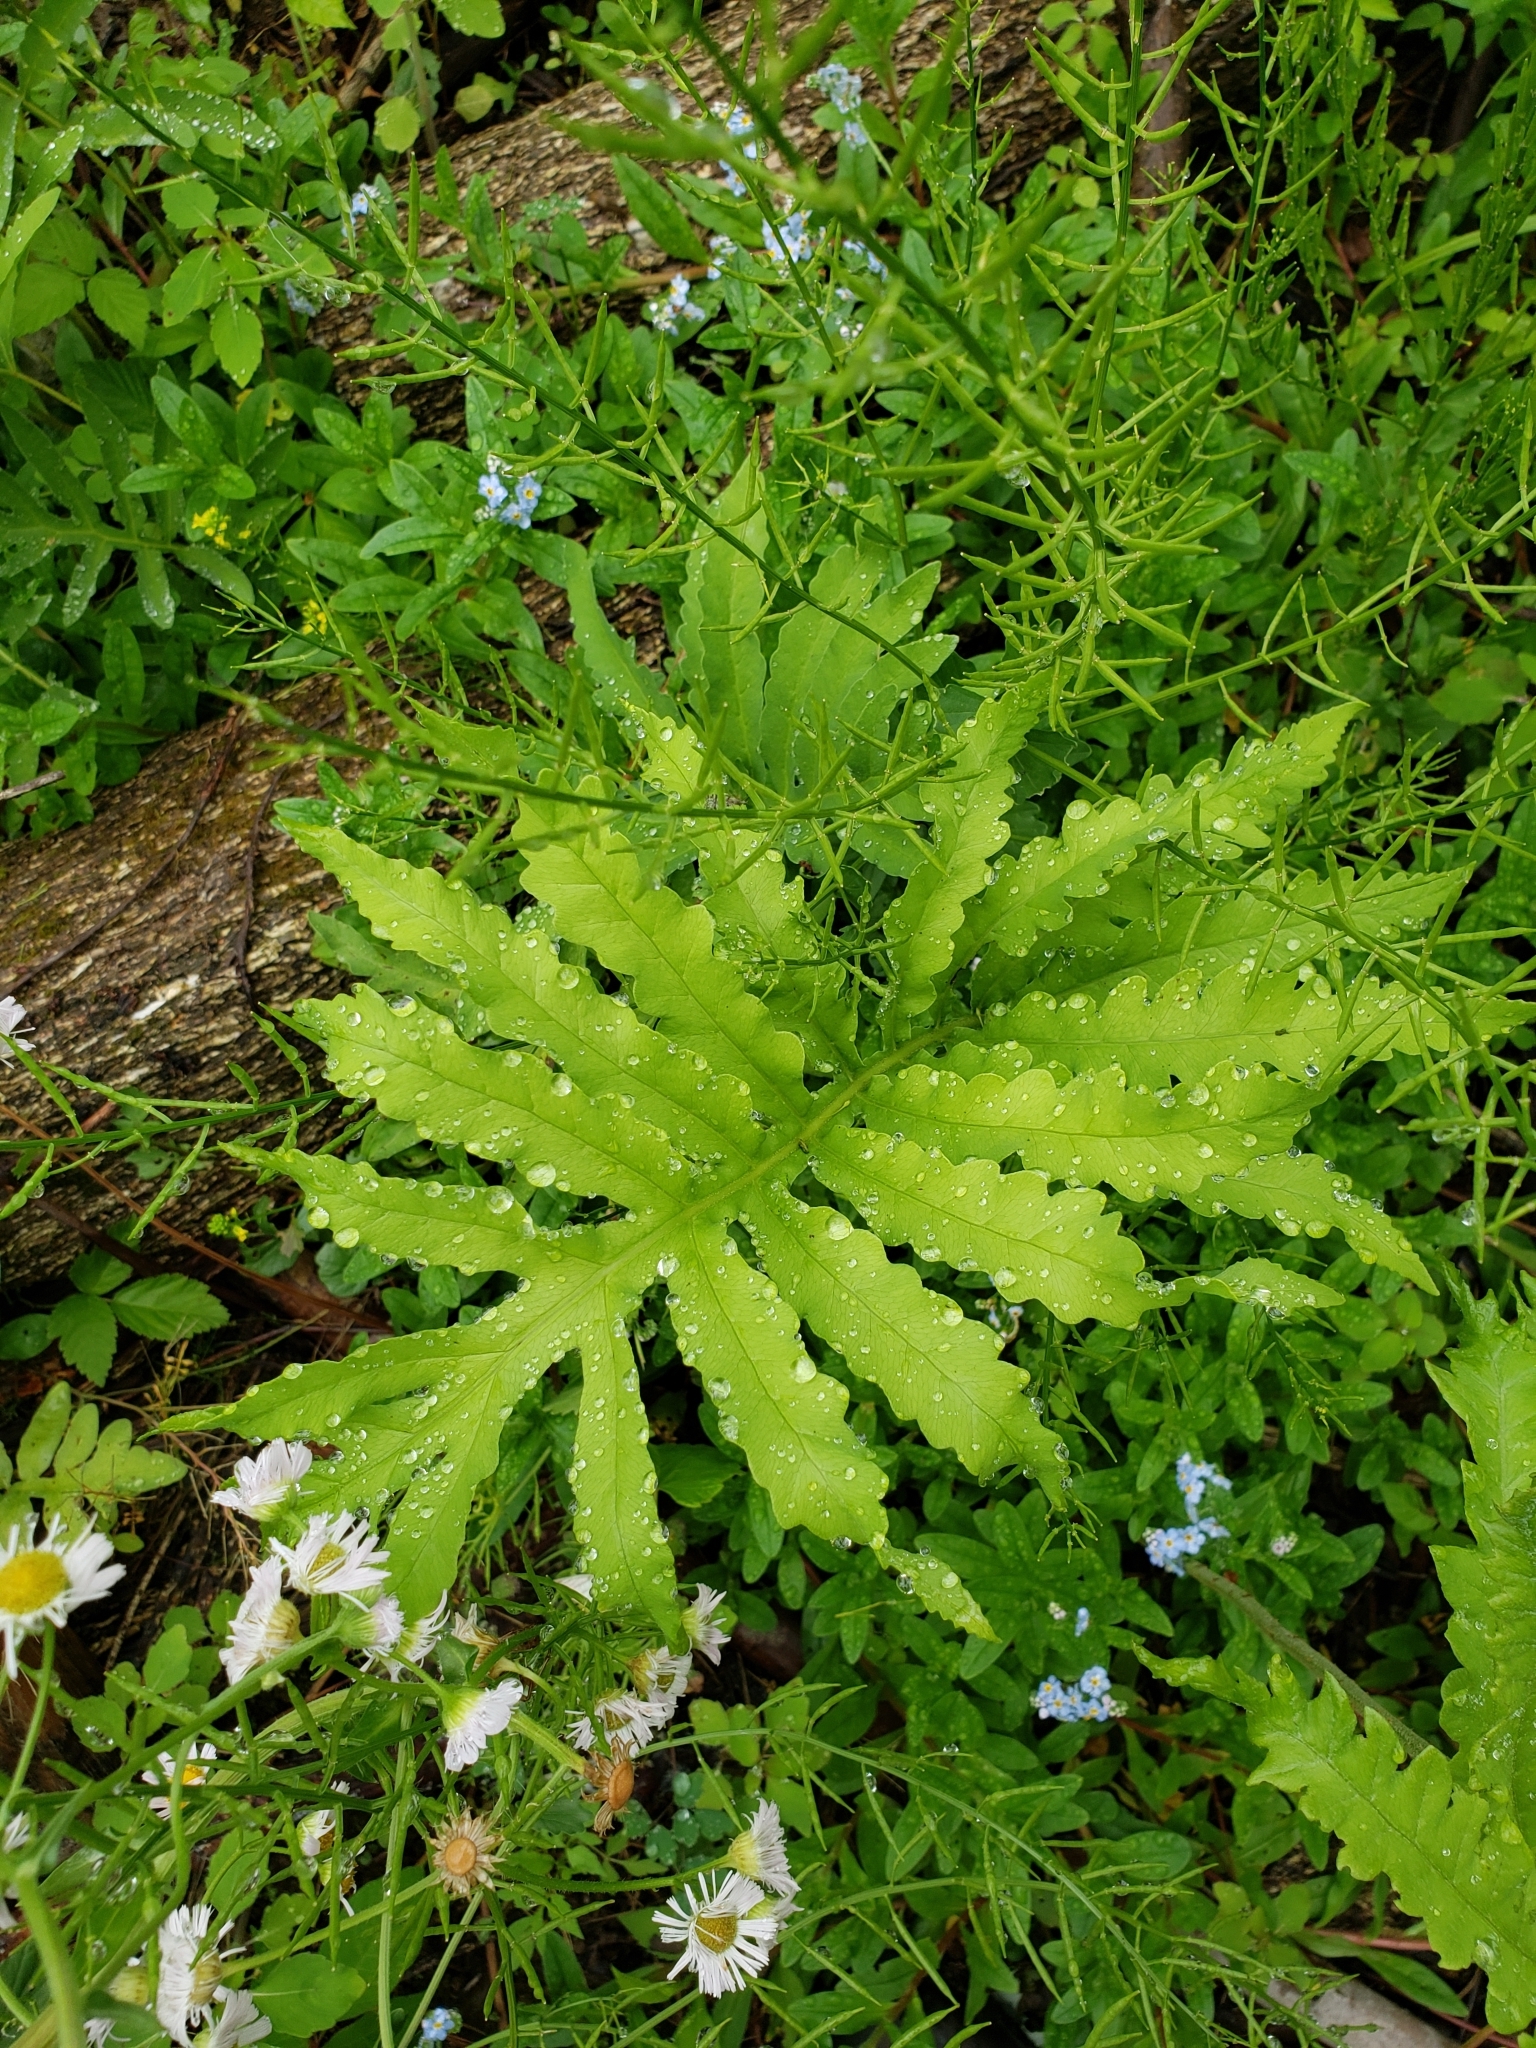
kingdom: Plantae
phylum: Tracheophyta
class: Polypodiopsida
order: Polypodiales
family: Onocleaceae
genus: Onoclea
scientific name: Onoclea sensibilis
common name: Sensitive fern
